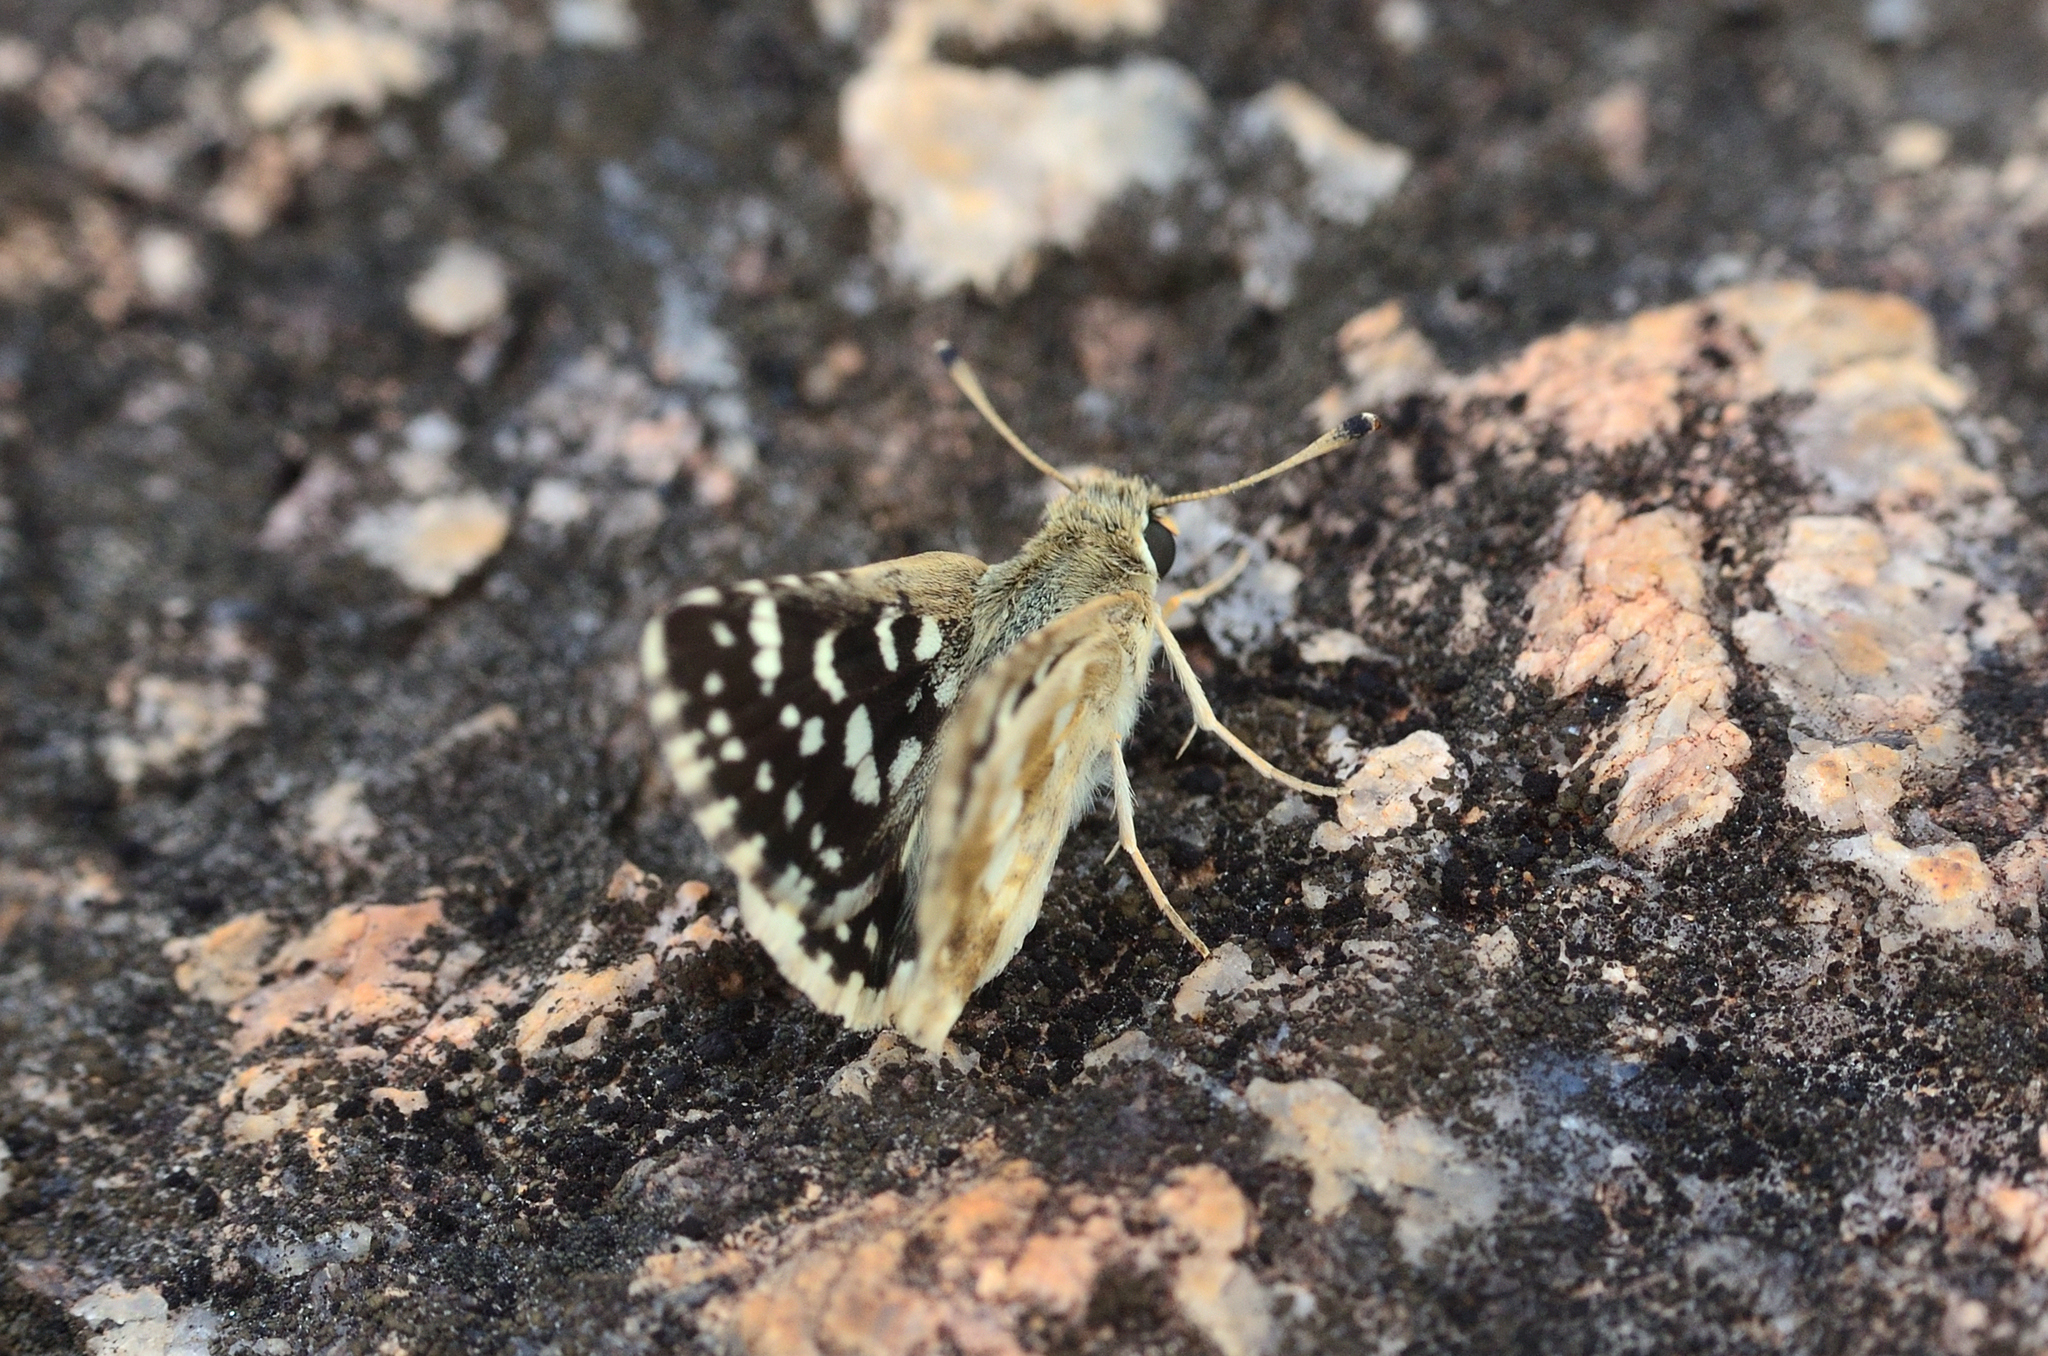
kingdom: Animalia
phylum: Arthropoda
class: Insecta
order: Lepidoptera
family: Hesperiidae
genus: Spialia
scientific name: Spialia galba
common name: Indian skipper
